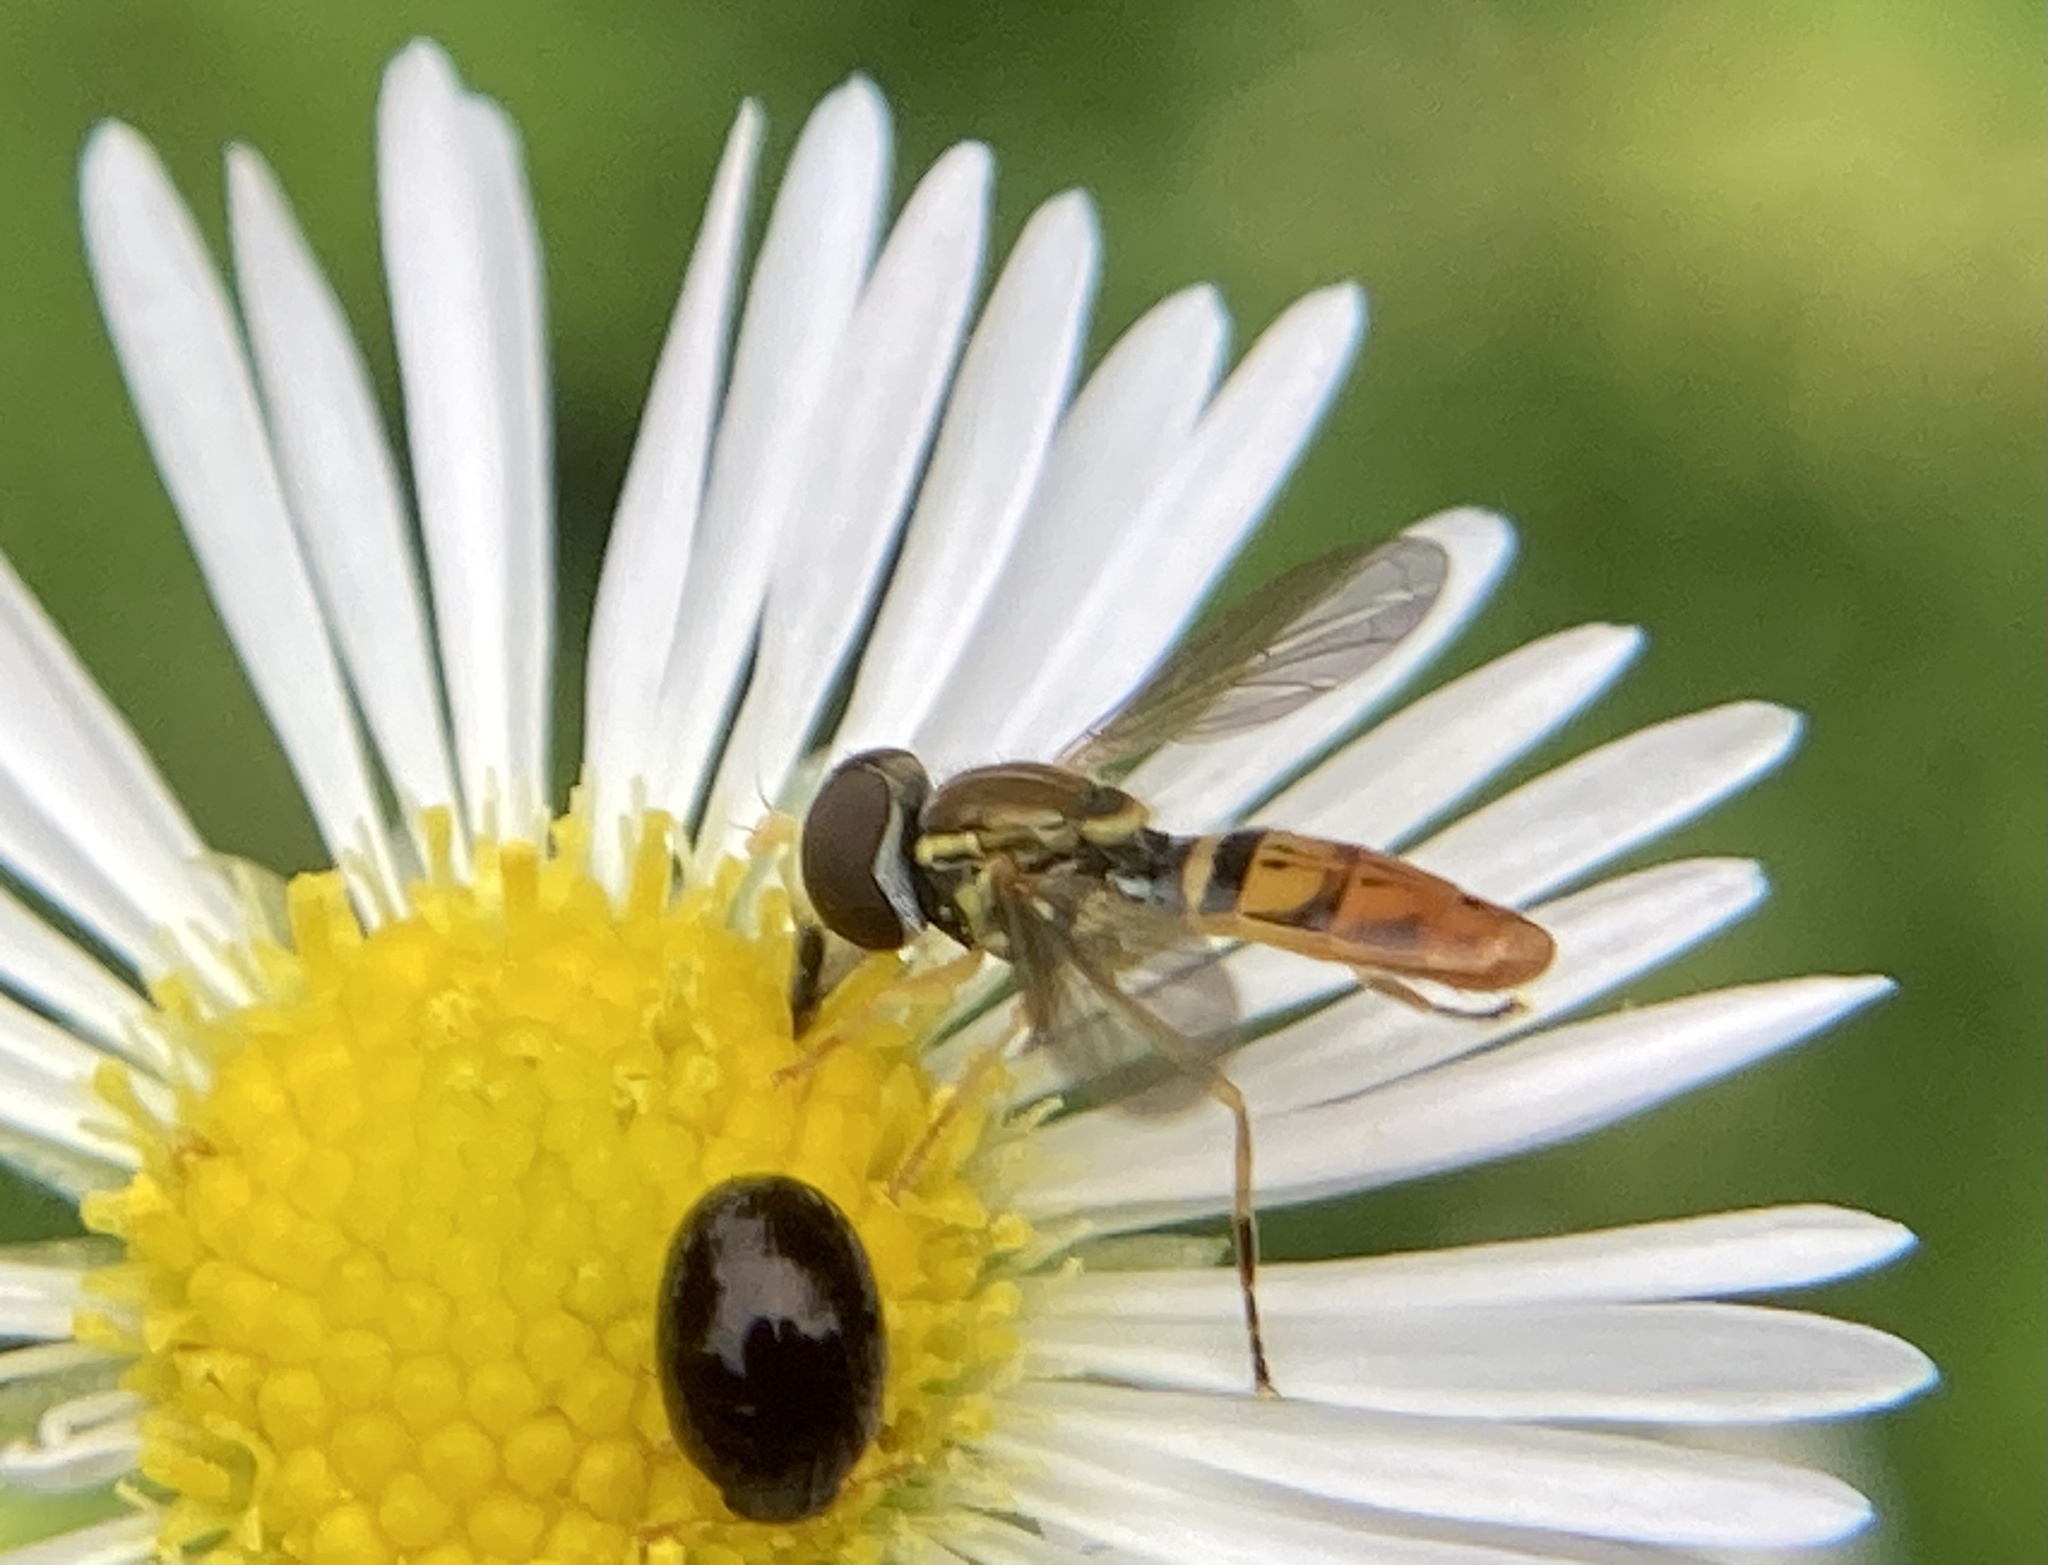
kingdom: Animalia
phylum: Arthropoda
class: Insecta
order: Diptera
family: Syrphidae
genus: Toxomerus
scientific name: Toxomerus marginatus
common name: Syrphid fly
